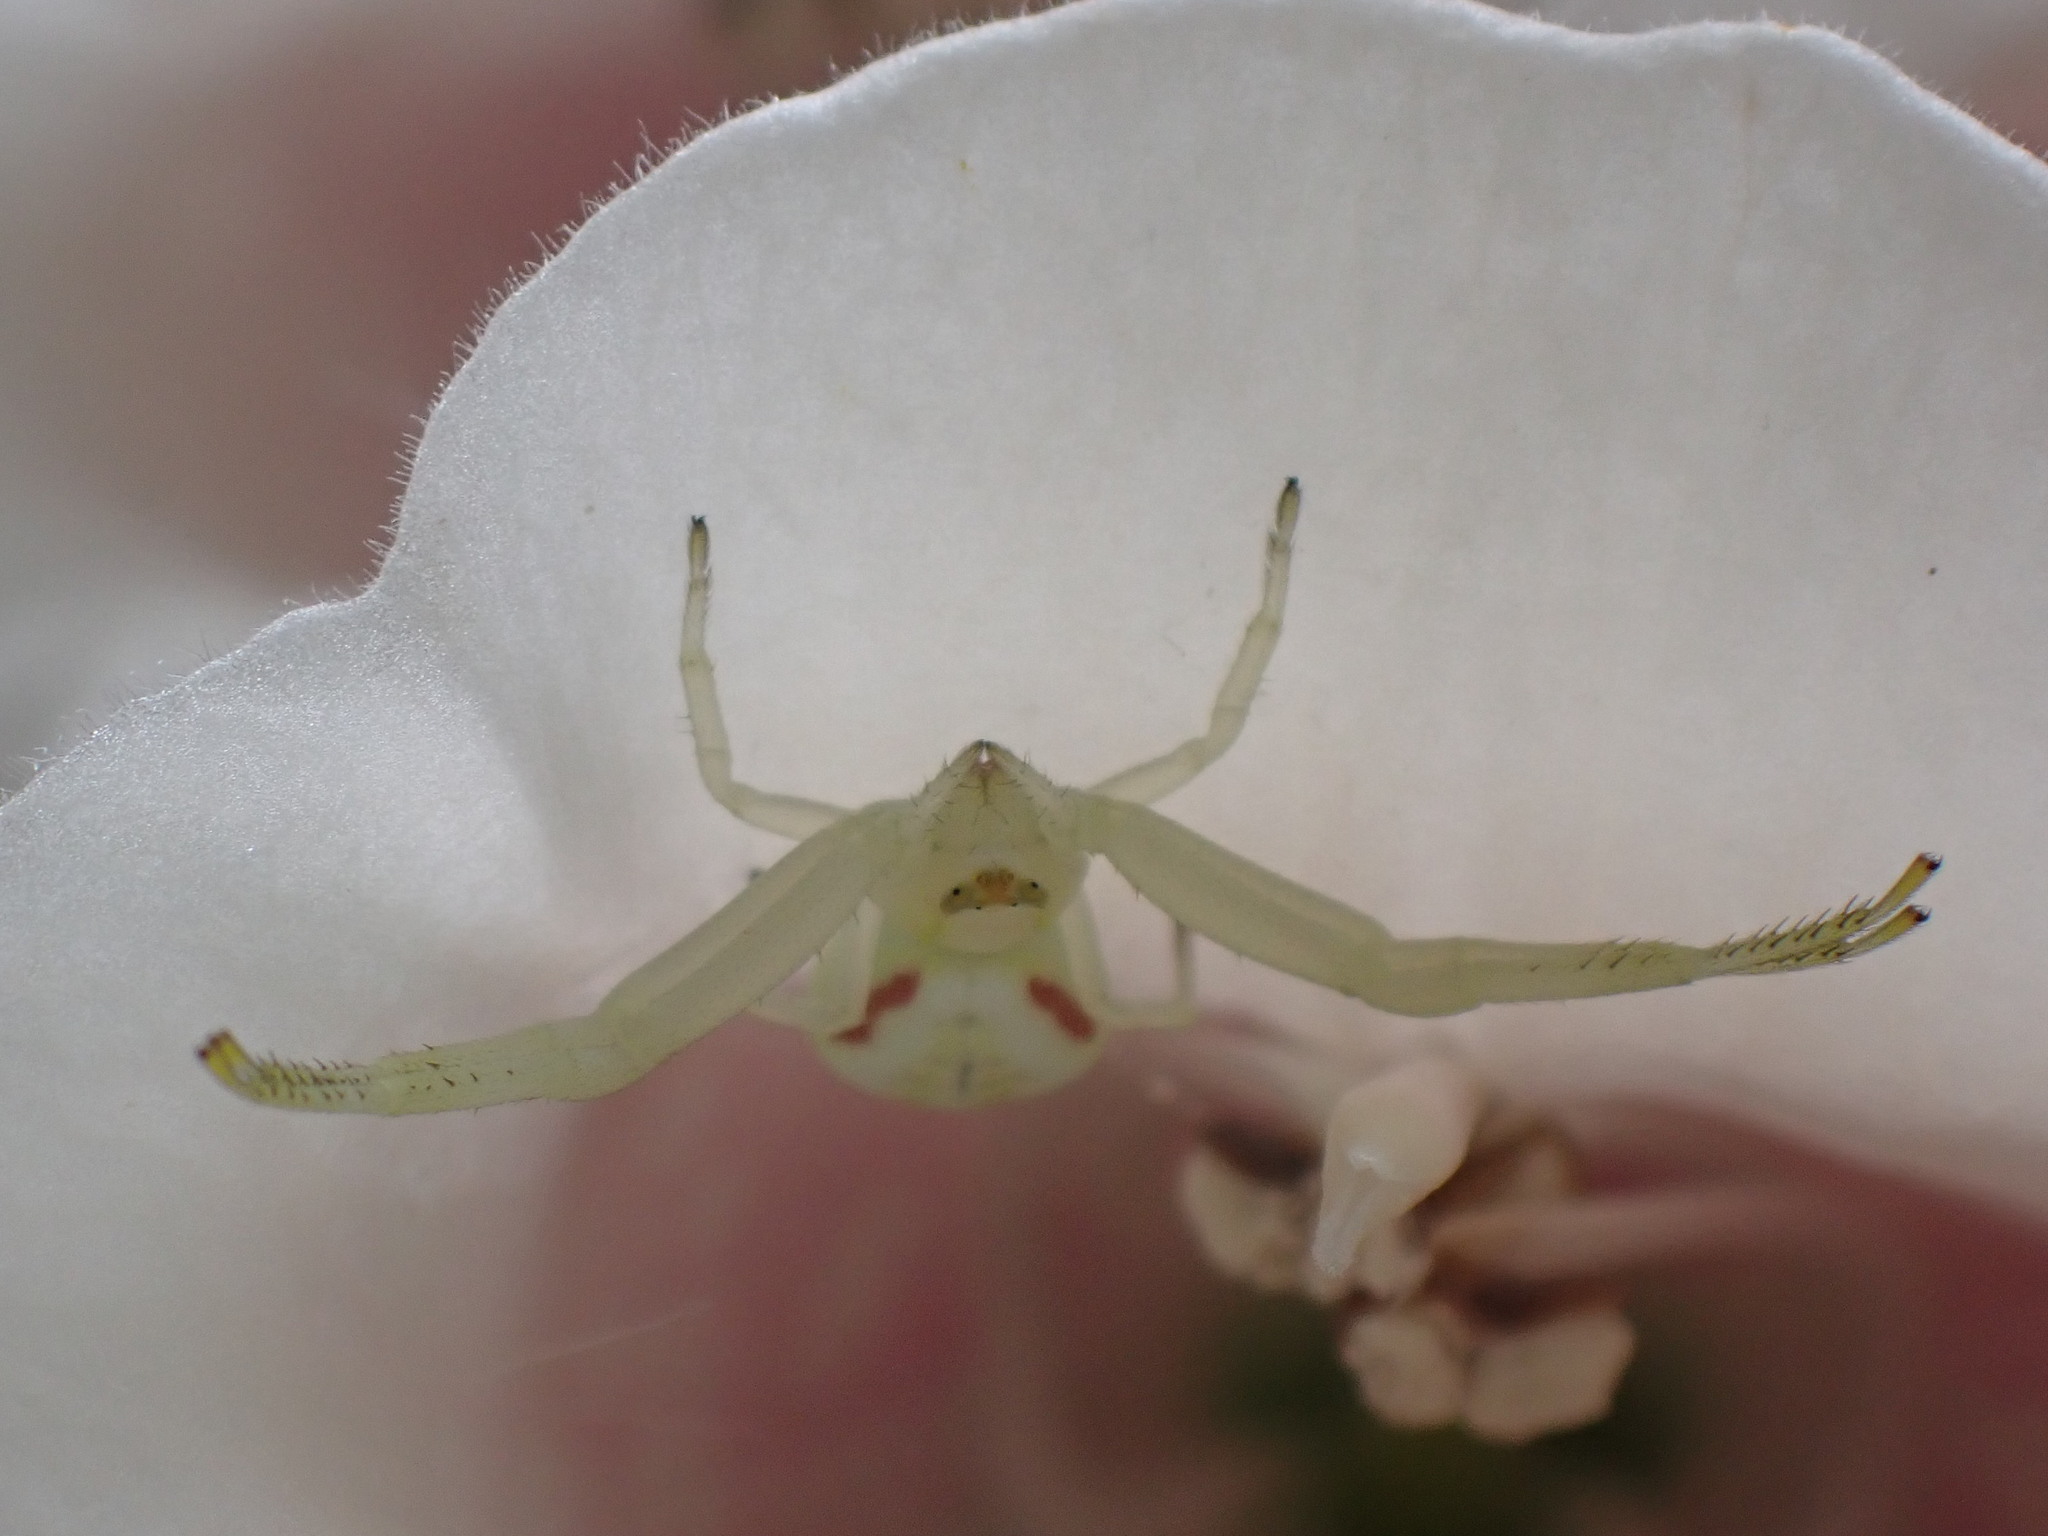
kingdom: Animalia
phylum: Arthropoda
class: Arachnida
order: Araneae
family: Thomisidae
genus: Misumena
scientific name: Misumena vatia
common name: Goldenrod crab spider
